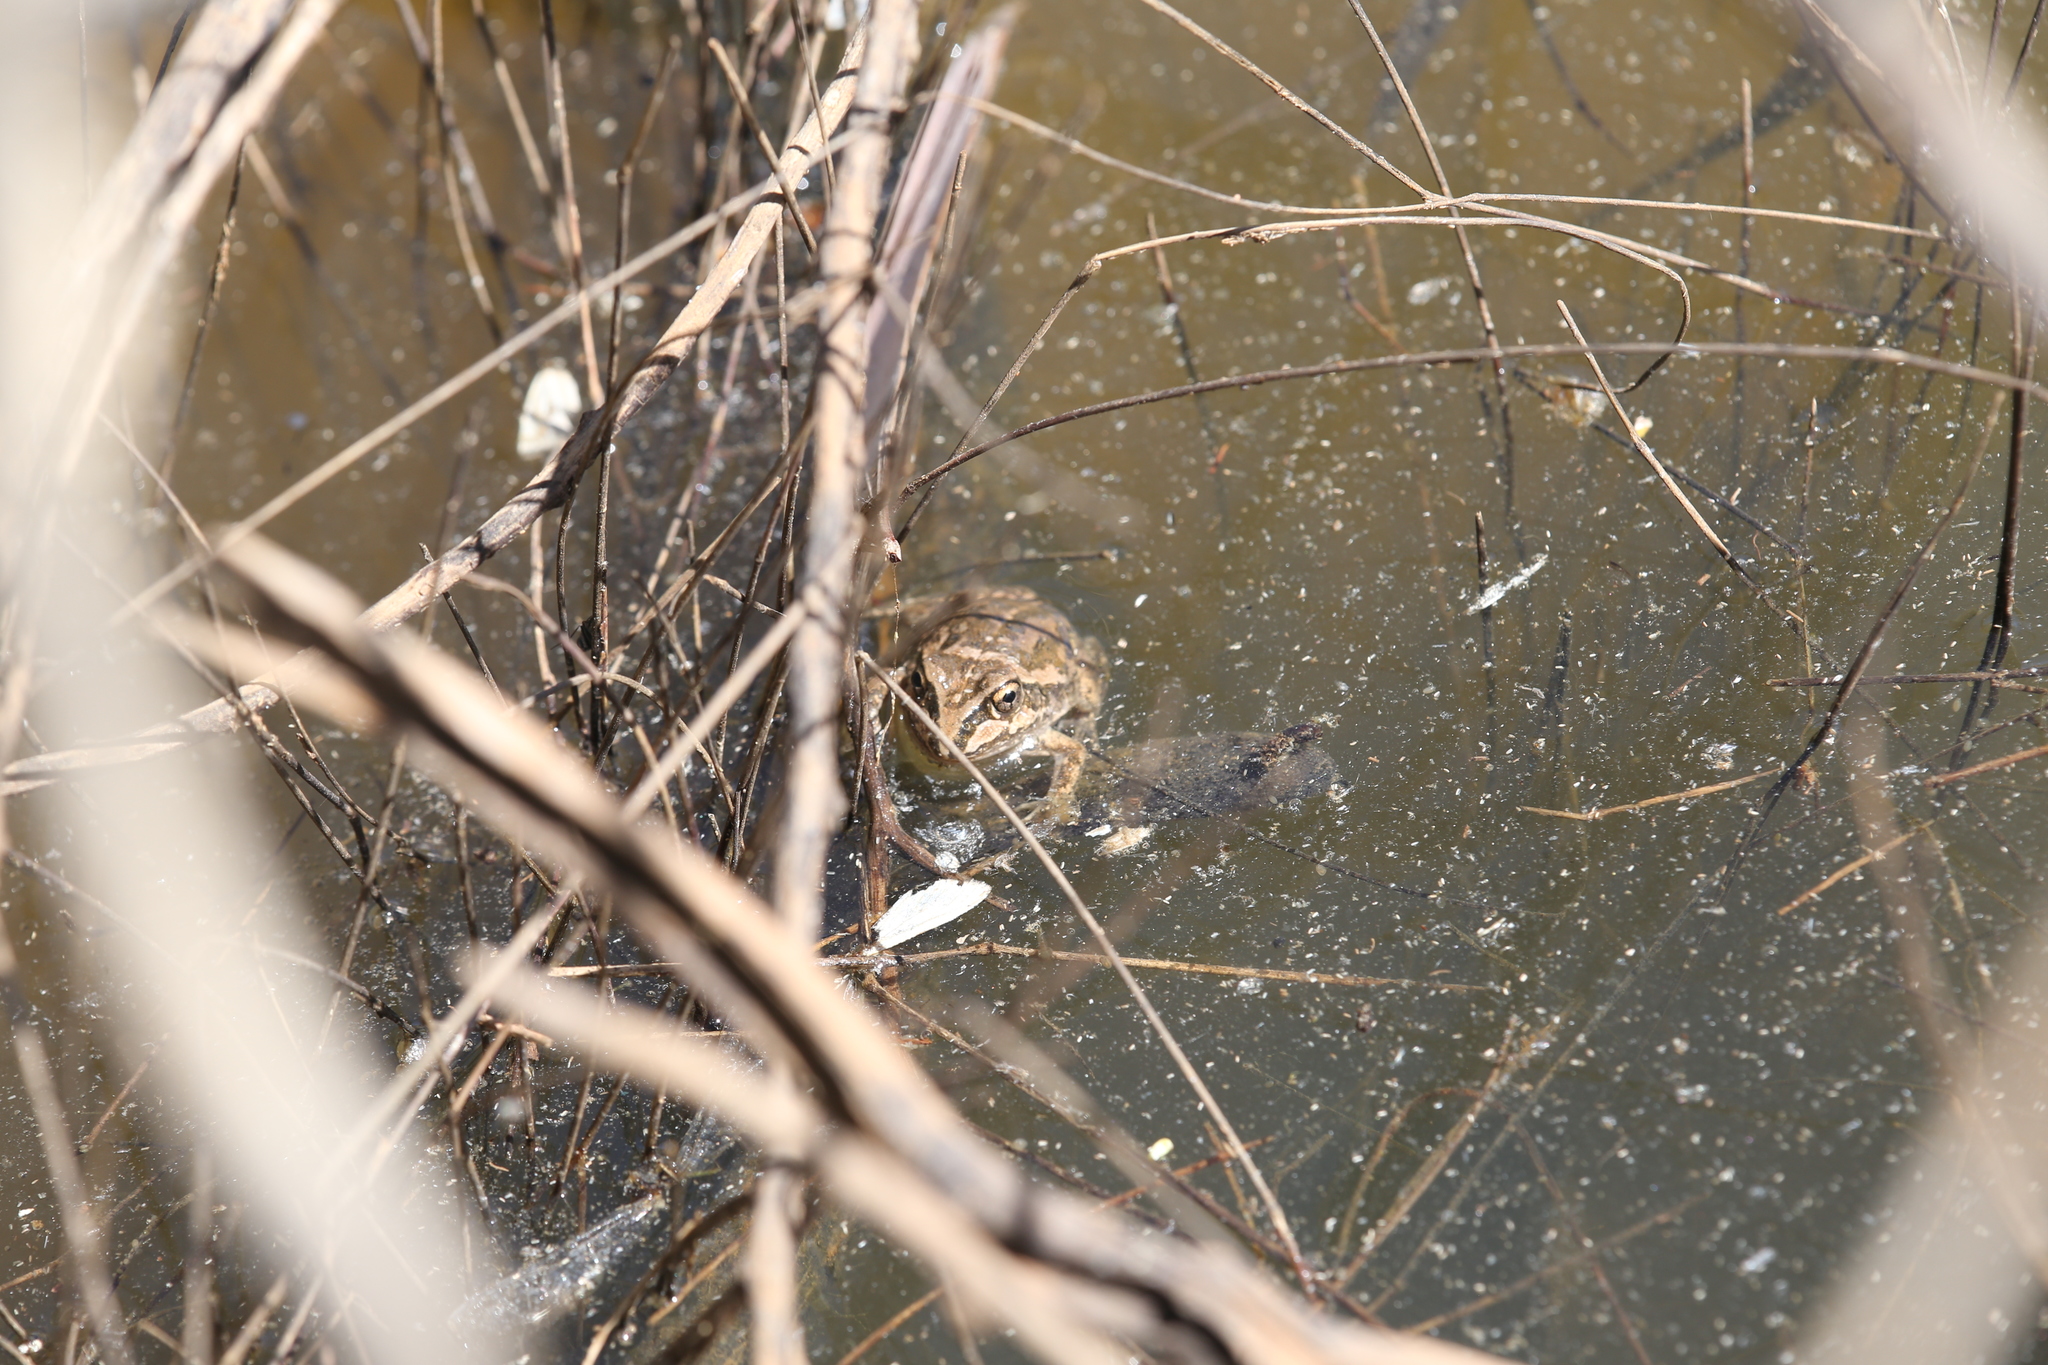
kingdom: Animalia
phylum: Chordata
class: Amphibia
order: Anura
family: Pelodryadidae
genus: Ranoidea
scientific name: Ranoidea cultripes
